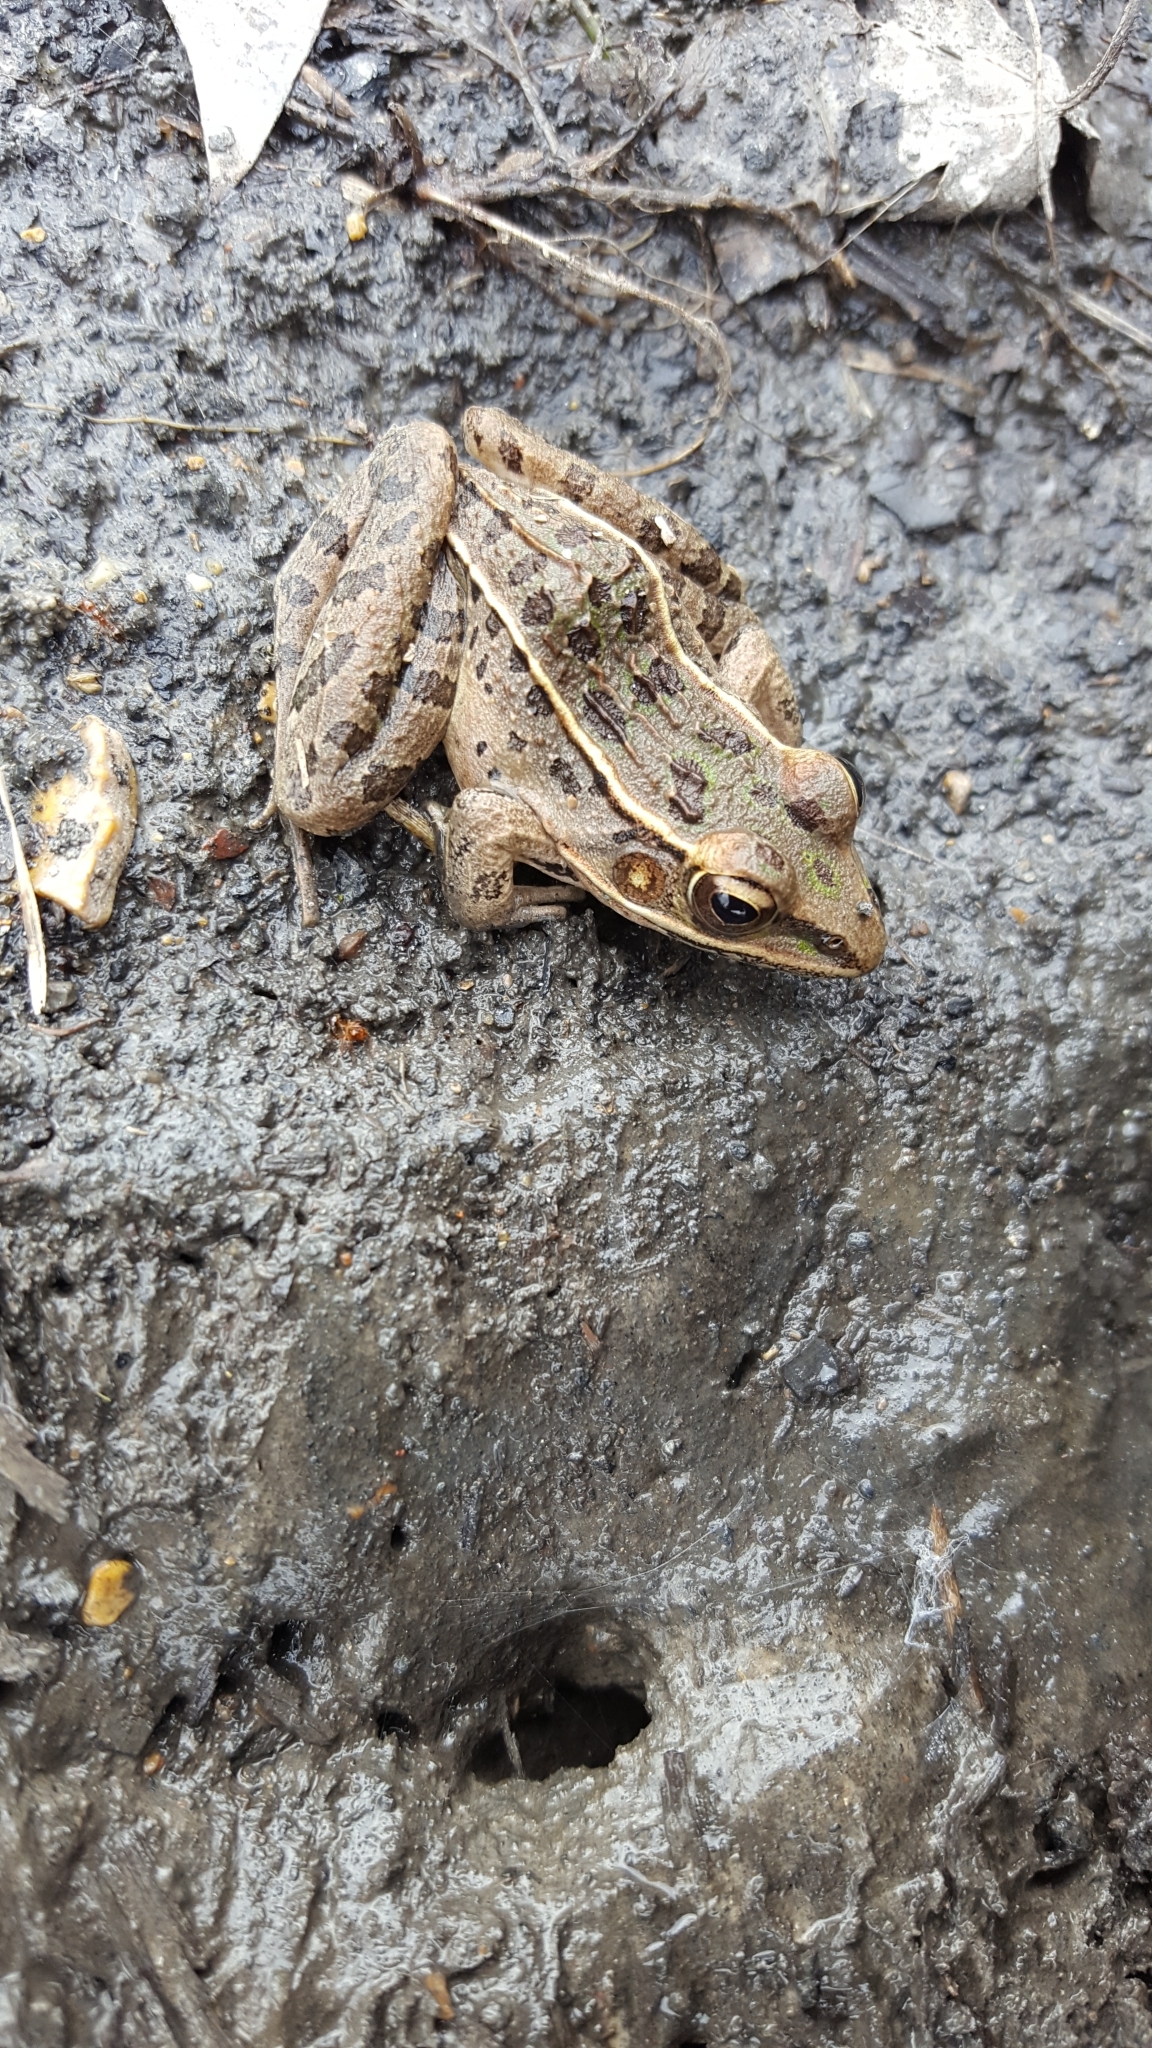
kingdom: Animalia
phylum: Chordata
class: Amphibia
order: Anura
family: Ranidae
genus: Lithobates
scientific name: Lithobates sphenocephalus
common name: Southern leopard frog
